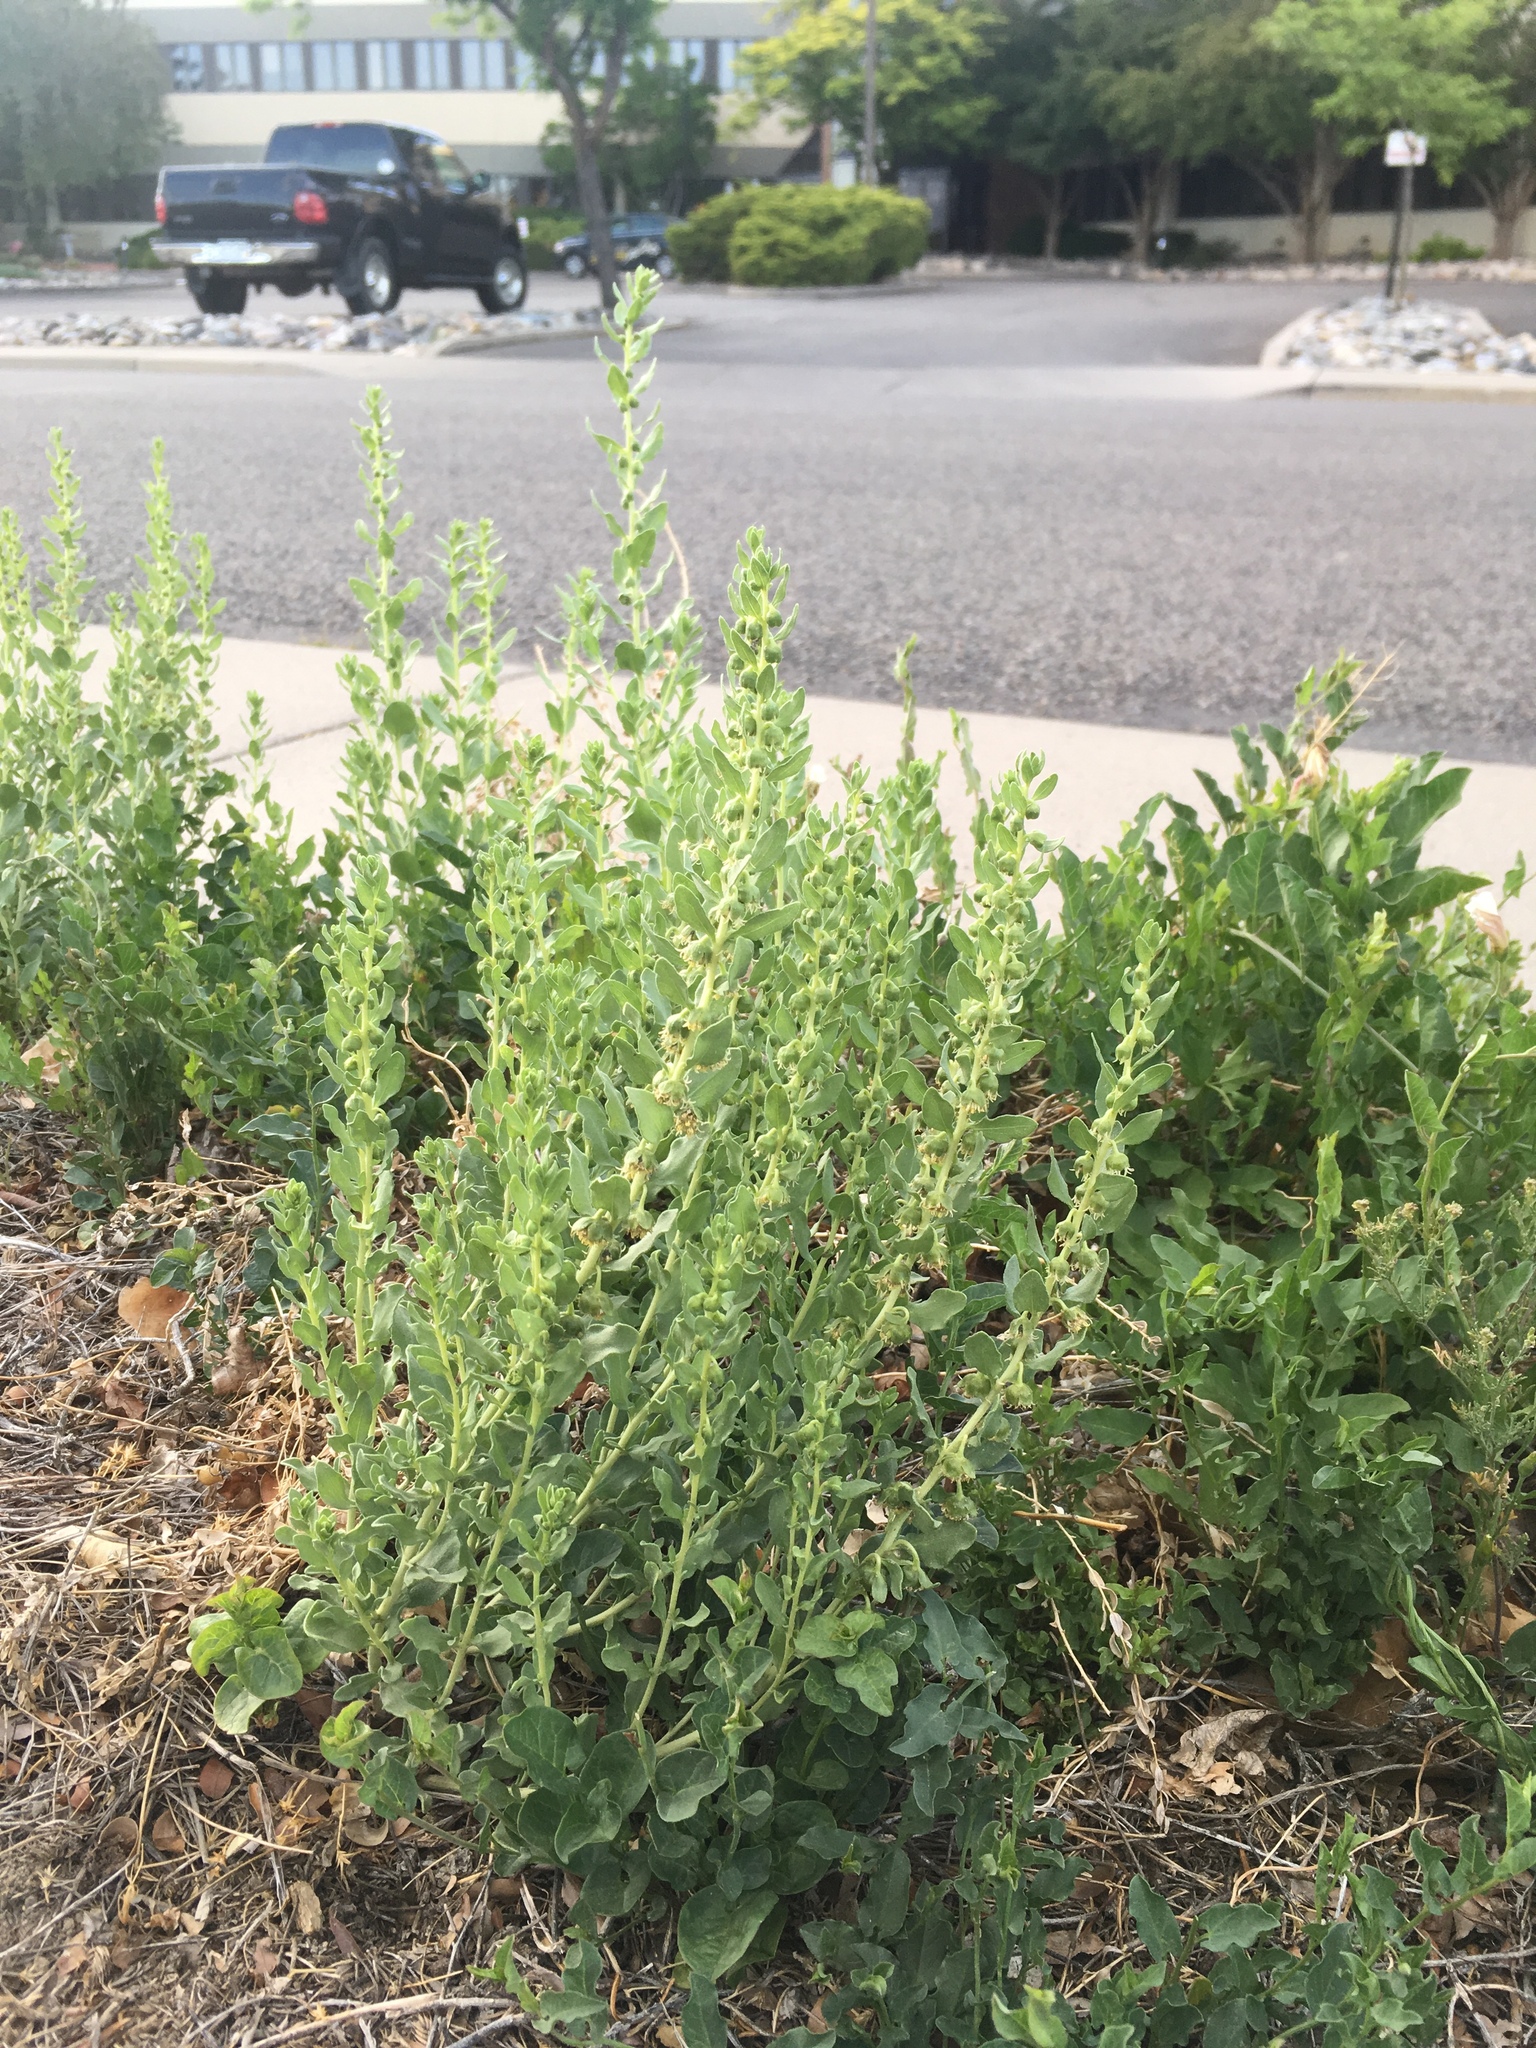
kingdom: Plantae
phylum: Tracheophyta
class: Magnoliopsida
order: Asterales
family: Asteraceae
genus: Iva
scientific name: Iva axillaris
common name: Poverty sumpweed
